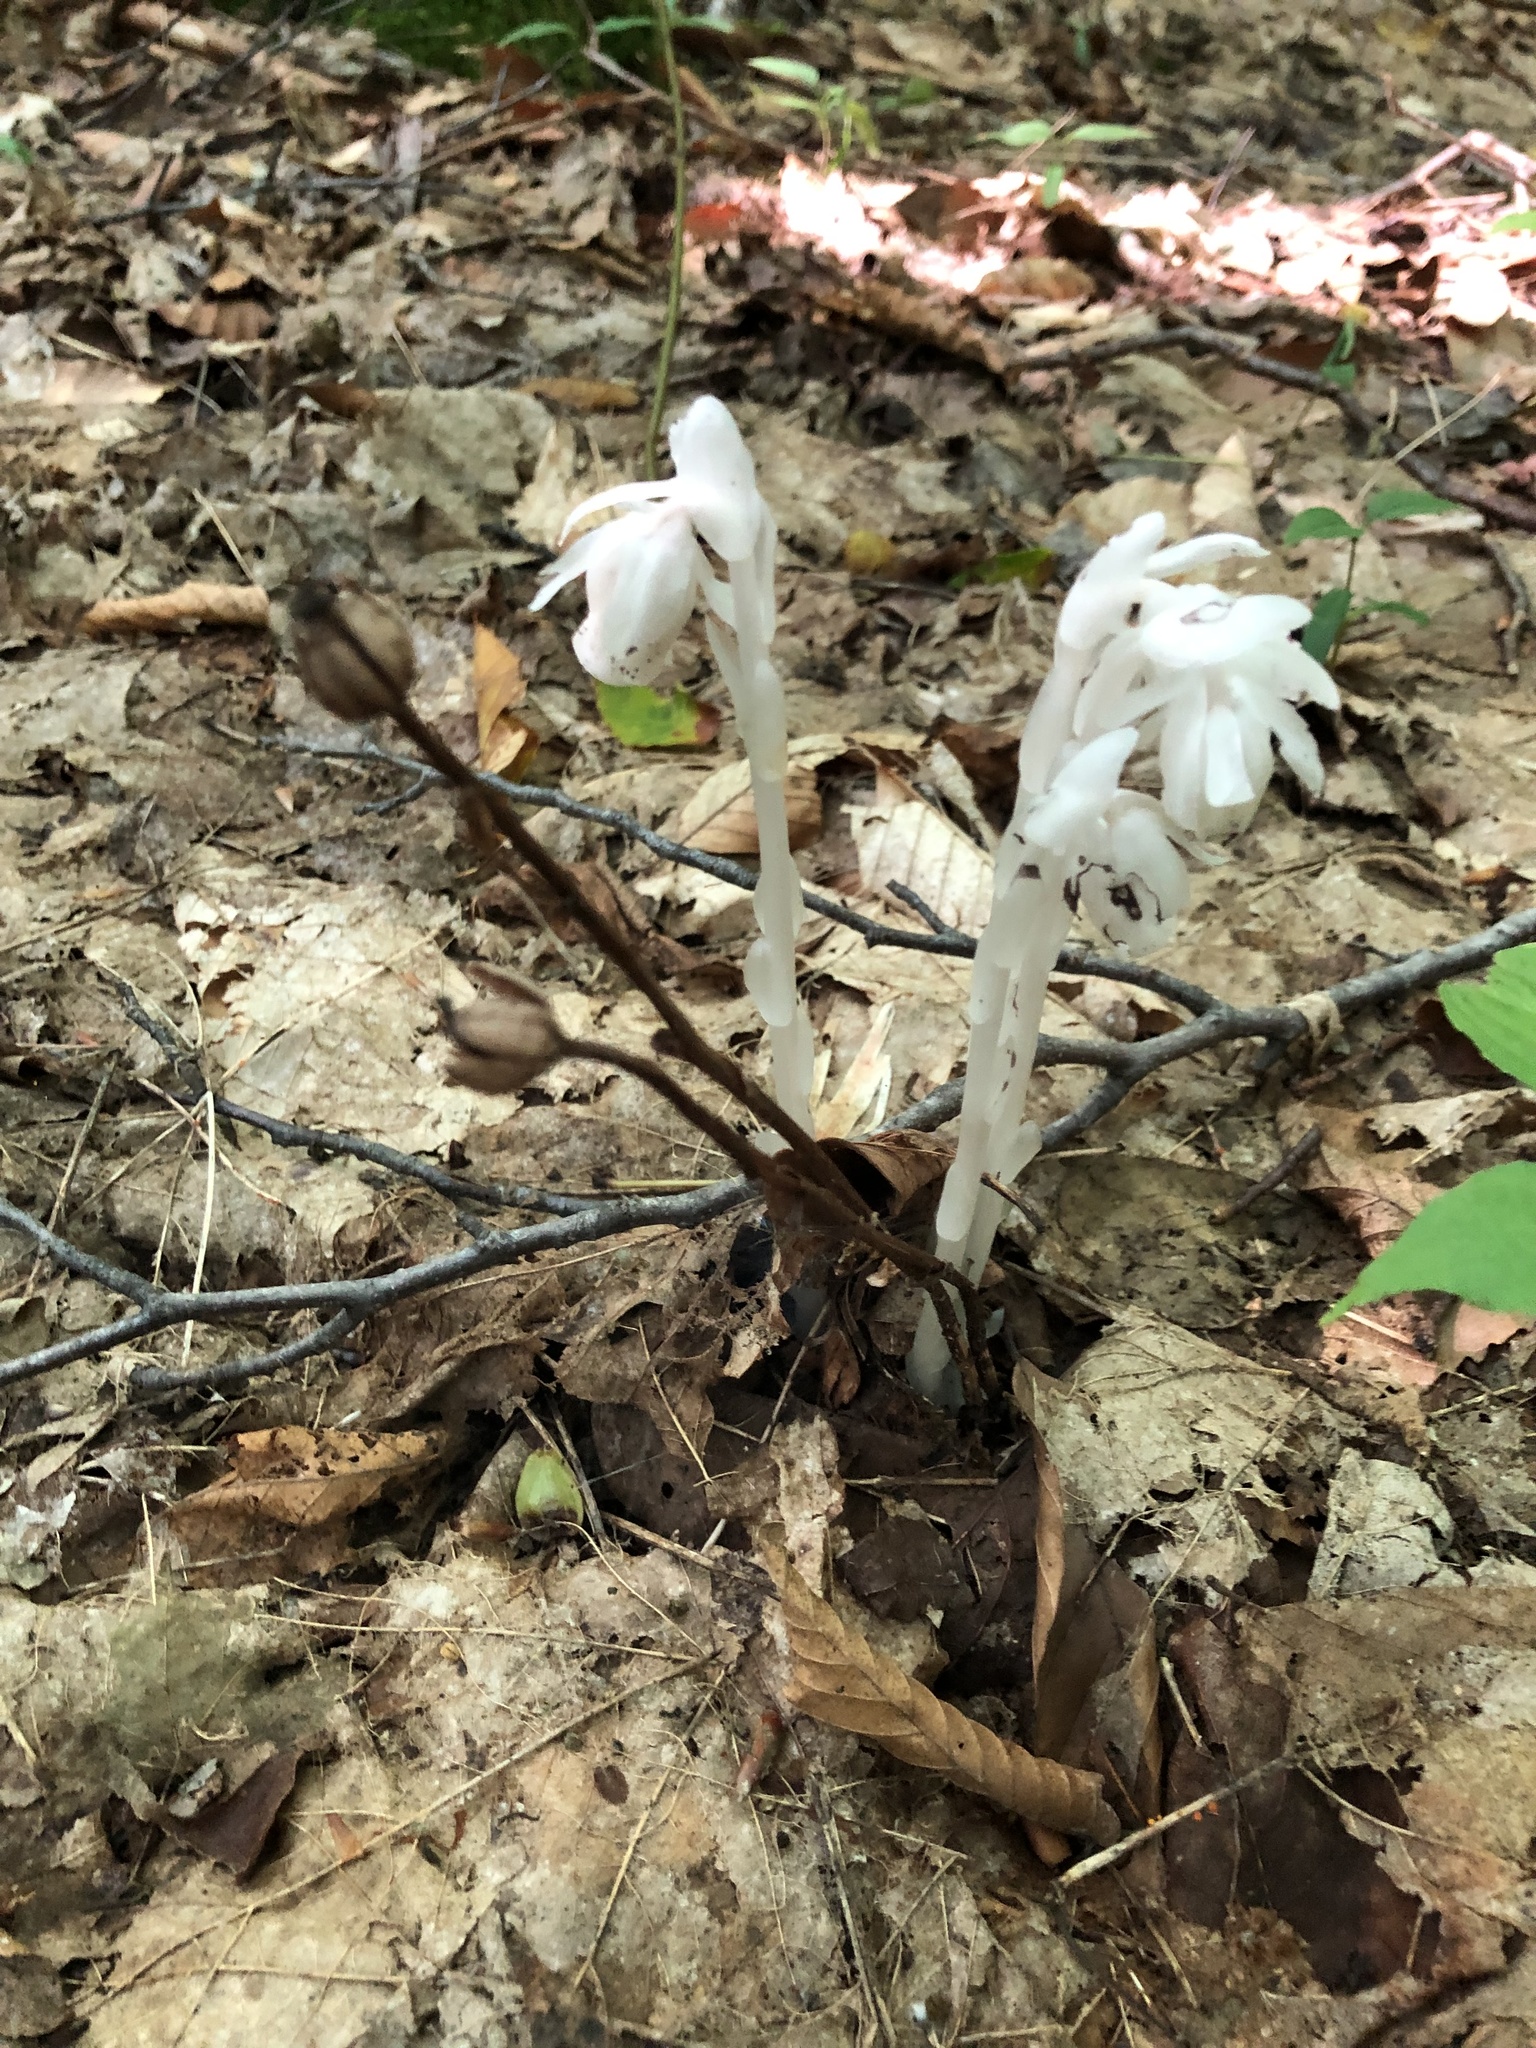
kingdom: Plantae
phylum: Tracheophyta
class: Magnoliopsida
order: Ericales
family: Ericaceae
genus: Monotropa
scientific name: Monotropa uniflora
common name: Convulsion root
